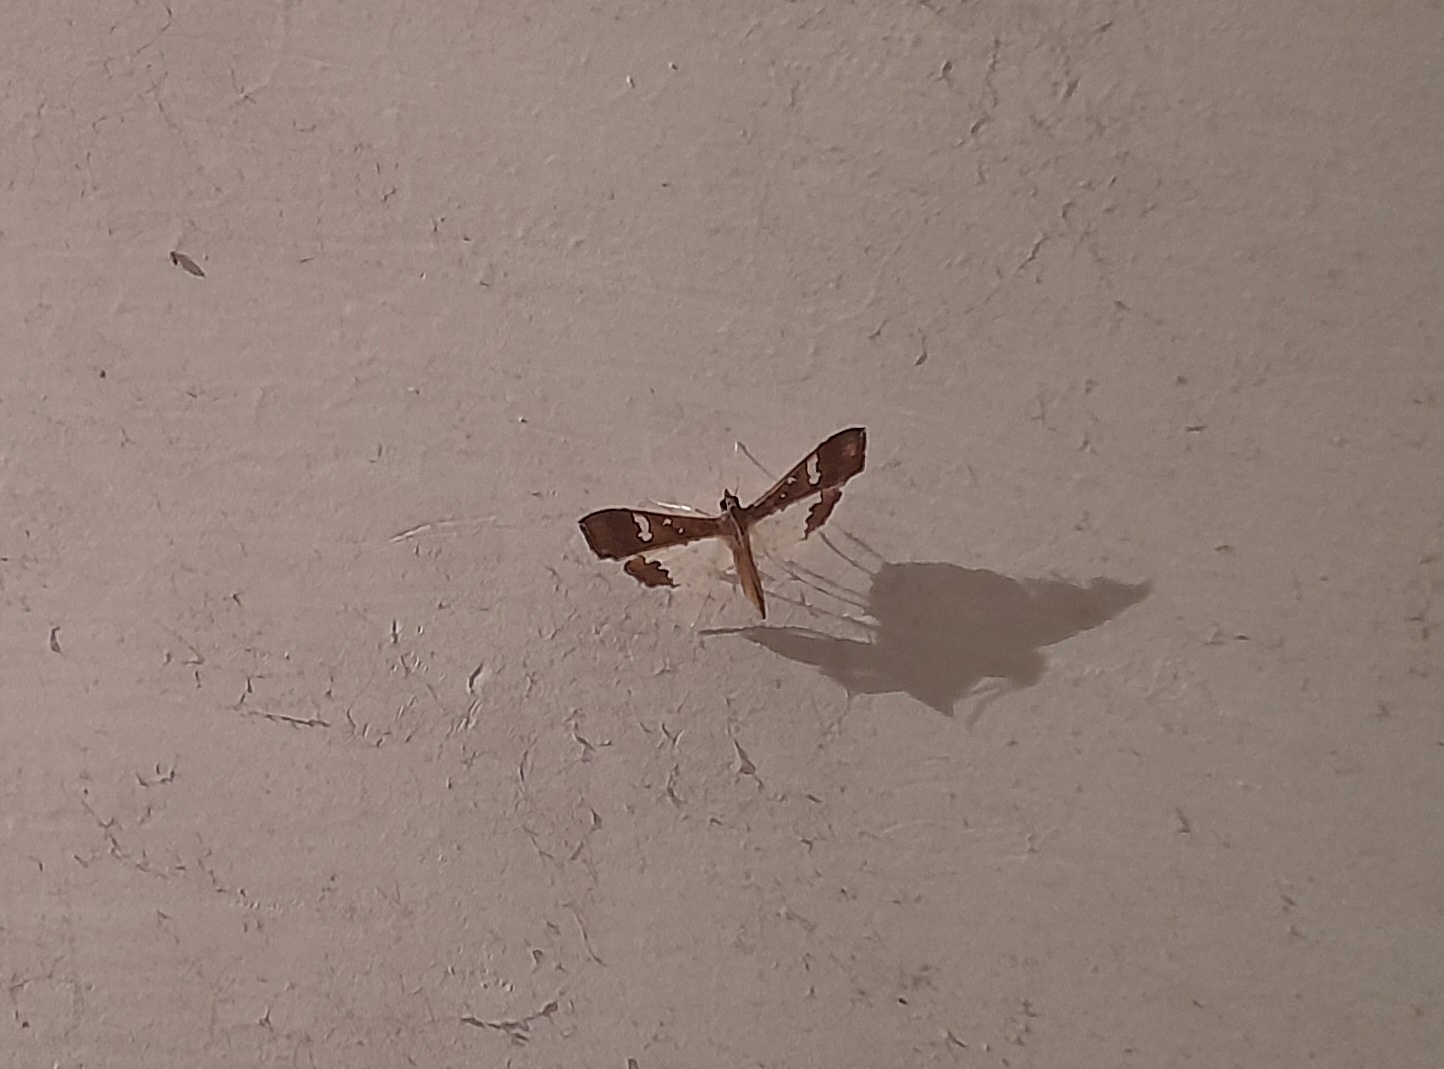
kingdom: Animalia
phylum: Arthropoda
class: Insecta
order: Lepidoptera
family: Crambidae
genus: Maruca
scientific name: Maruca vitrata
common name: Maruca pod borer
